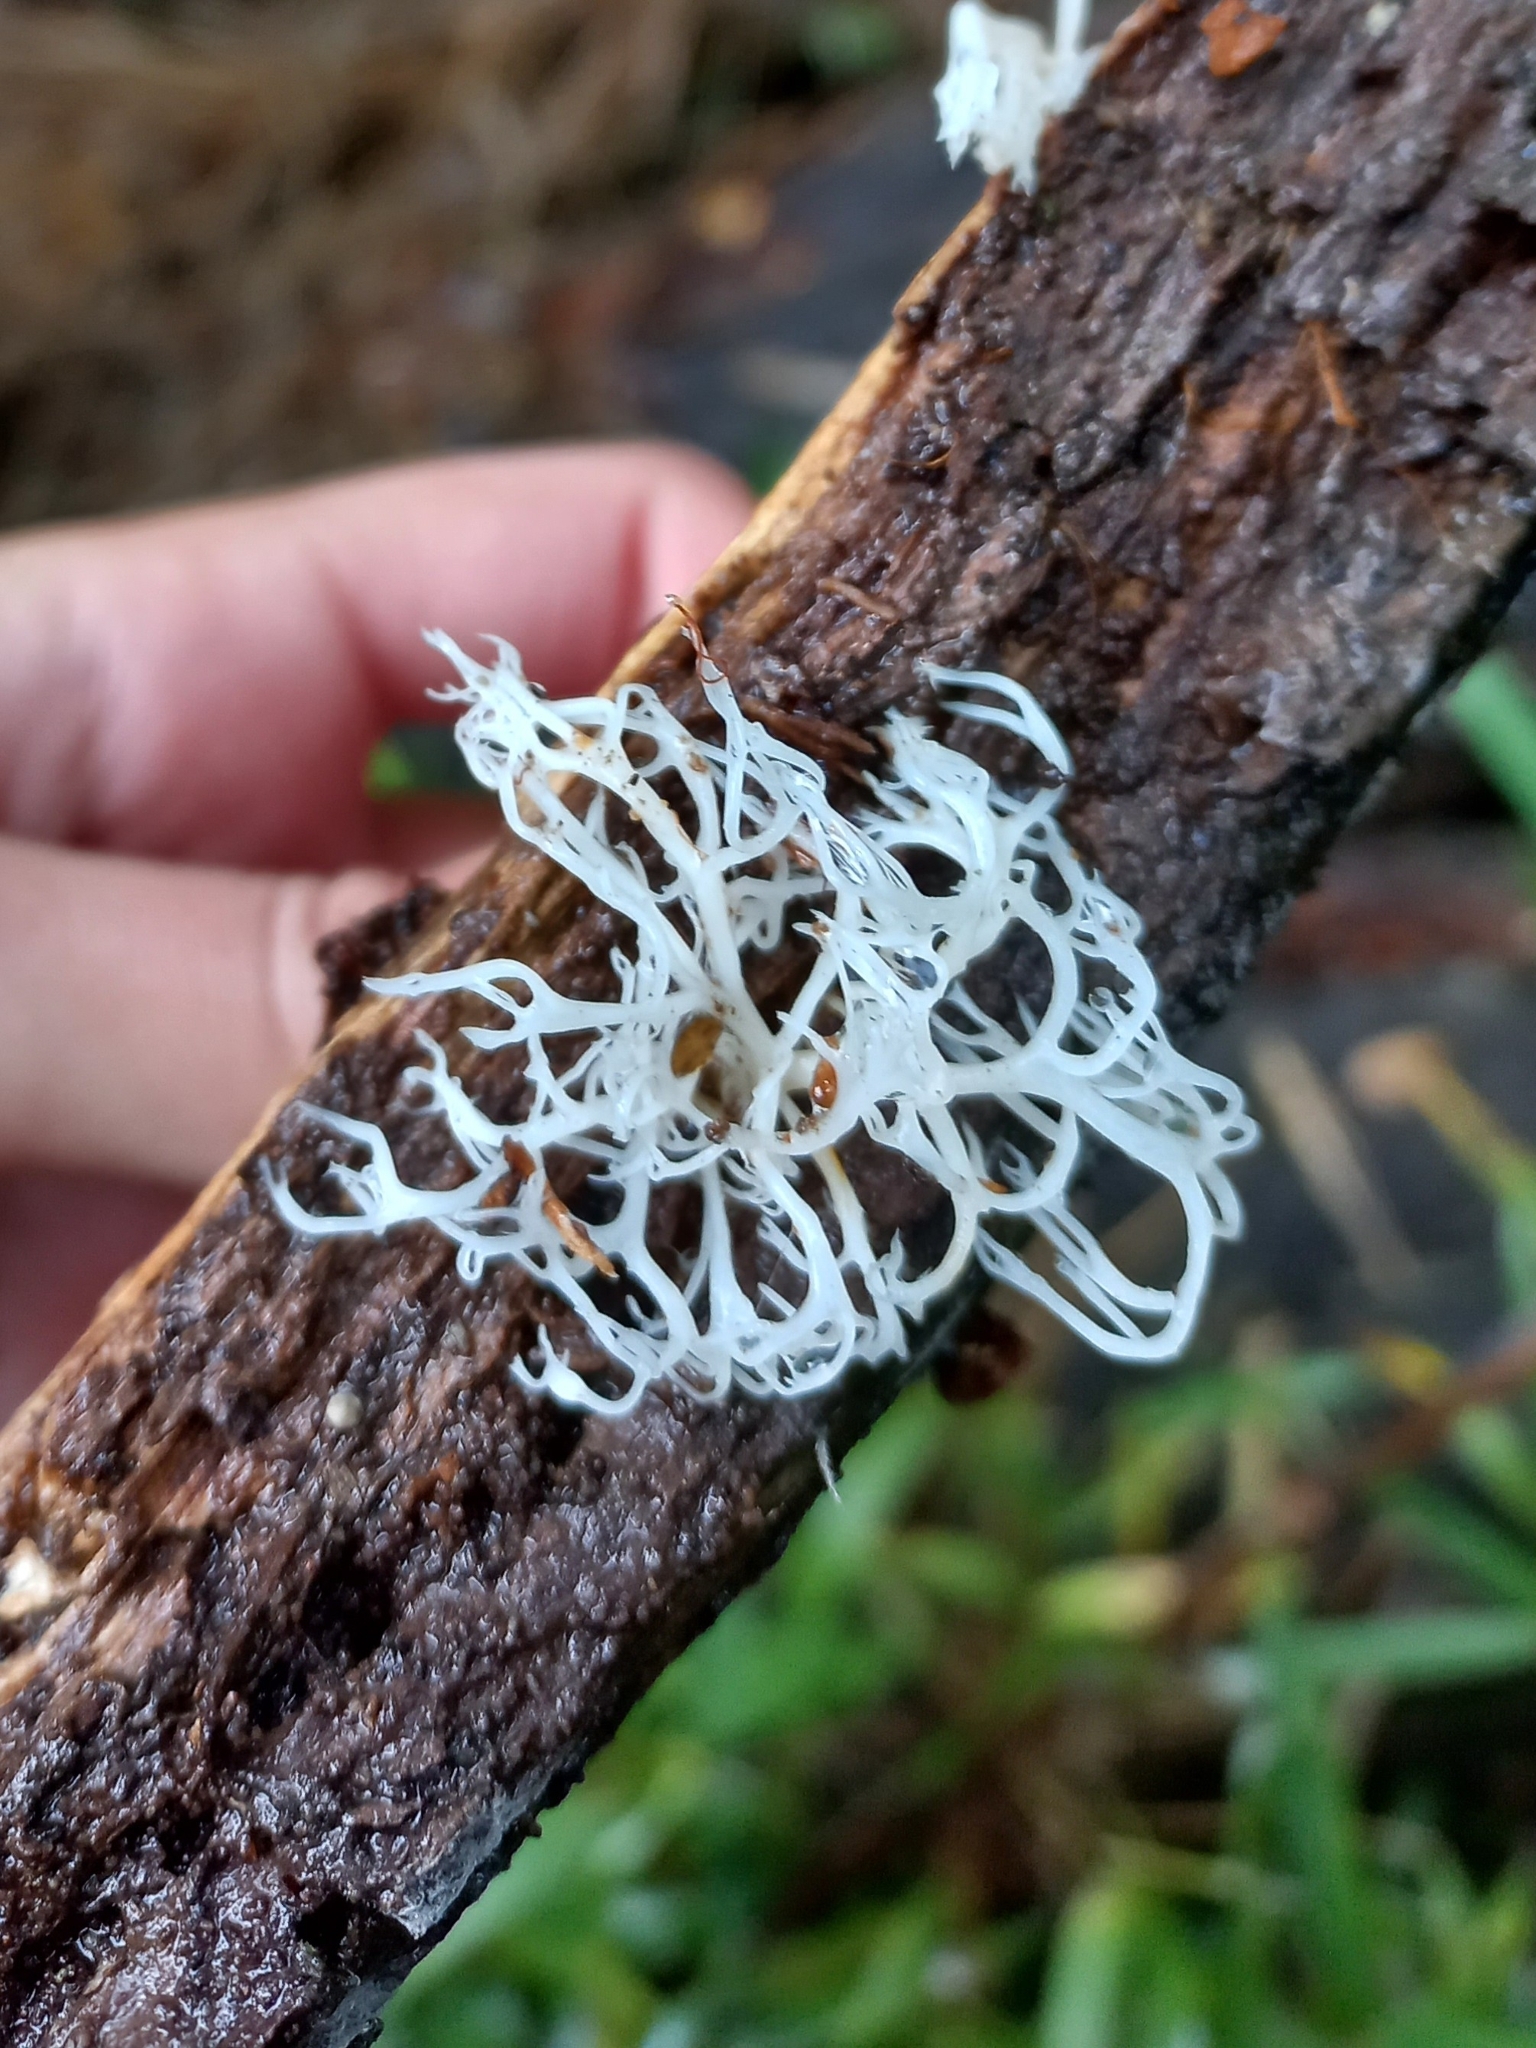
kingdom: Fungi
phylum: Basidiomycota
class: Agaricomycetes
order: Russulales
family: Auriscalpiaceae
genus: Artomyces
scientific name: Artomyces adrienneae
